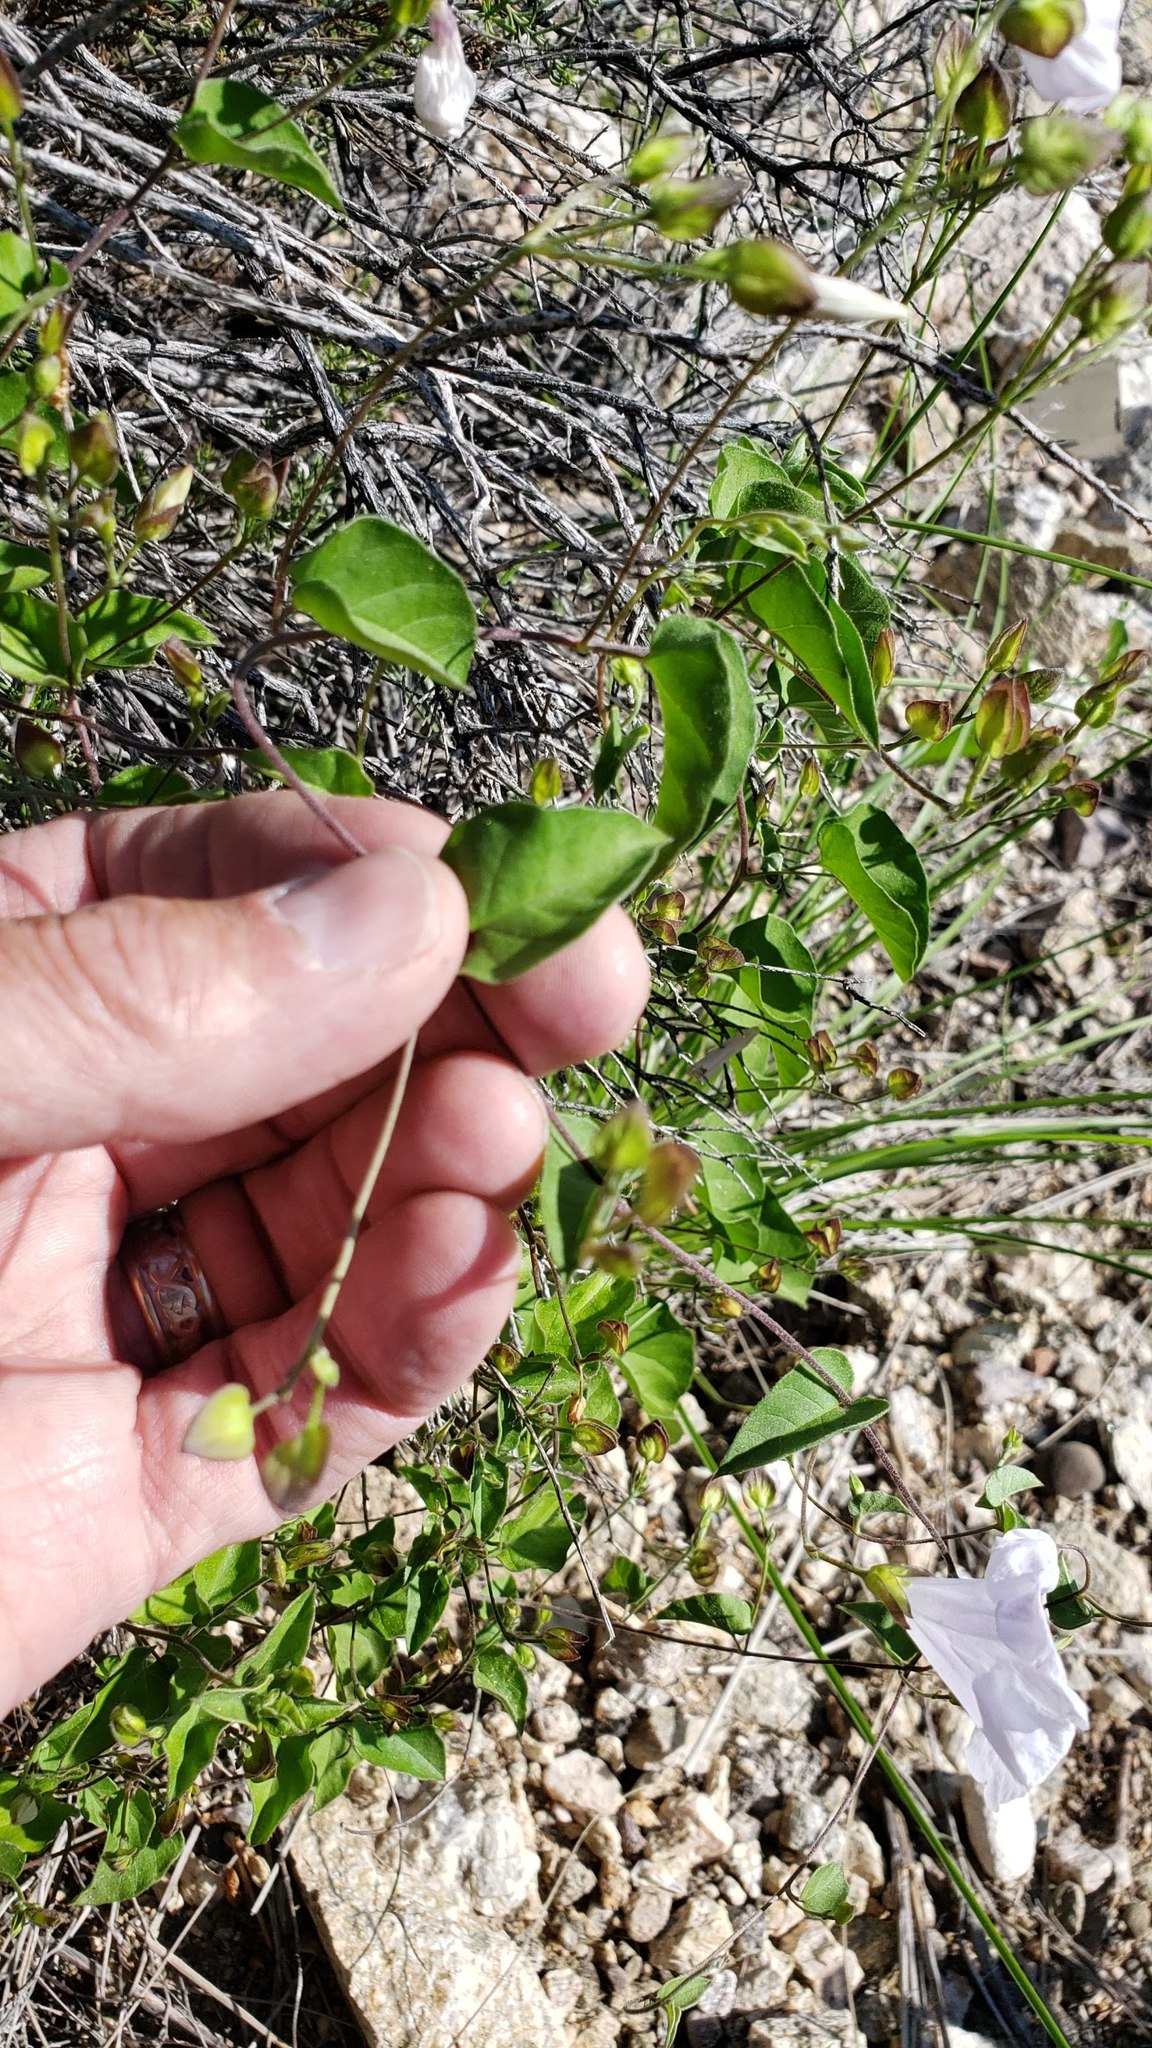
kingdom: Plantae
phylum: Tracheophyta
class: Magnoliopsida
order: Solanales
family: Convolvulaceae
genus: Jacquemontia
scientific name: Jacquemontia pringlei
